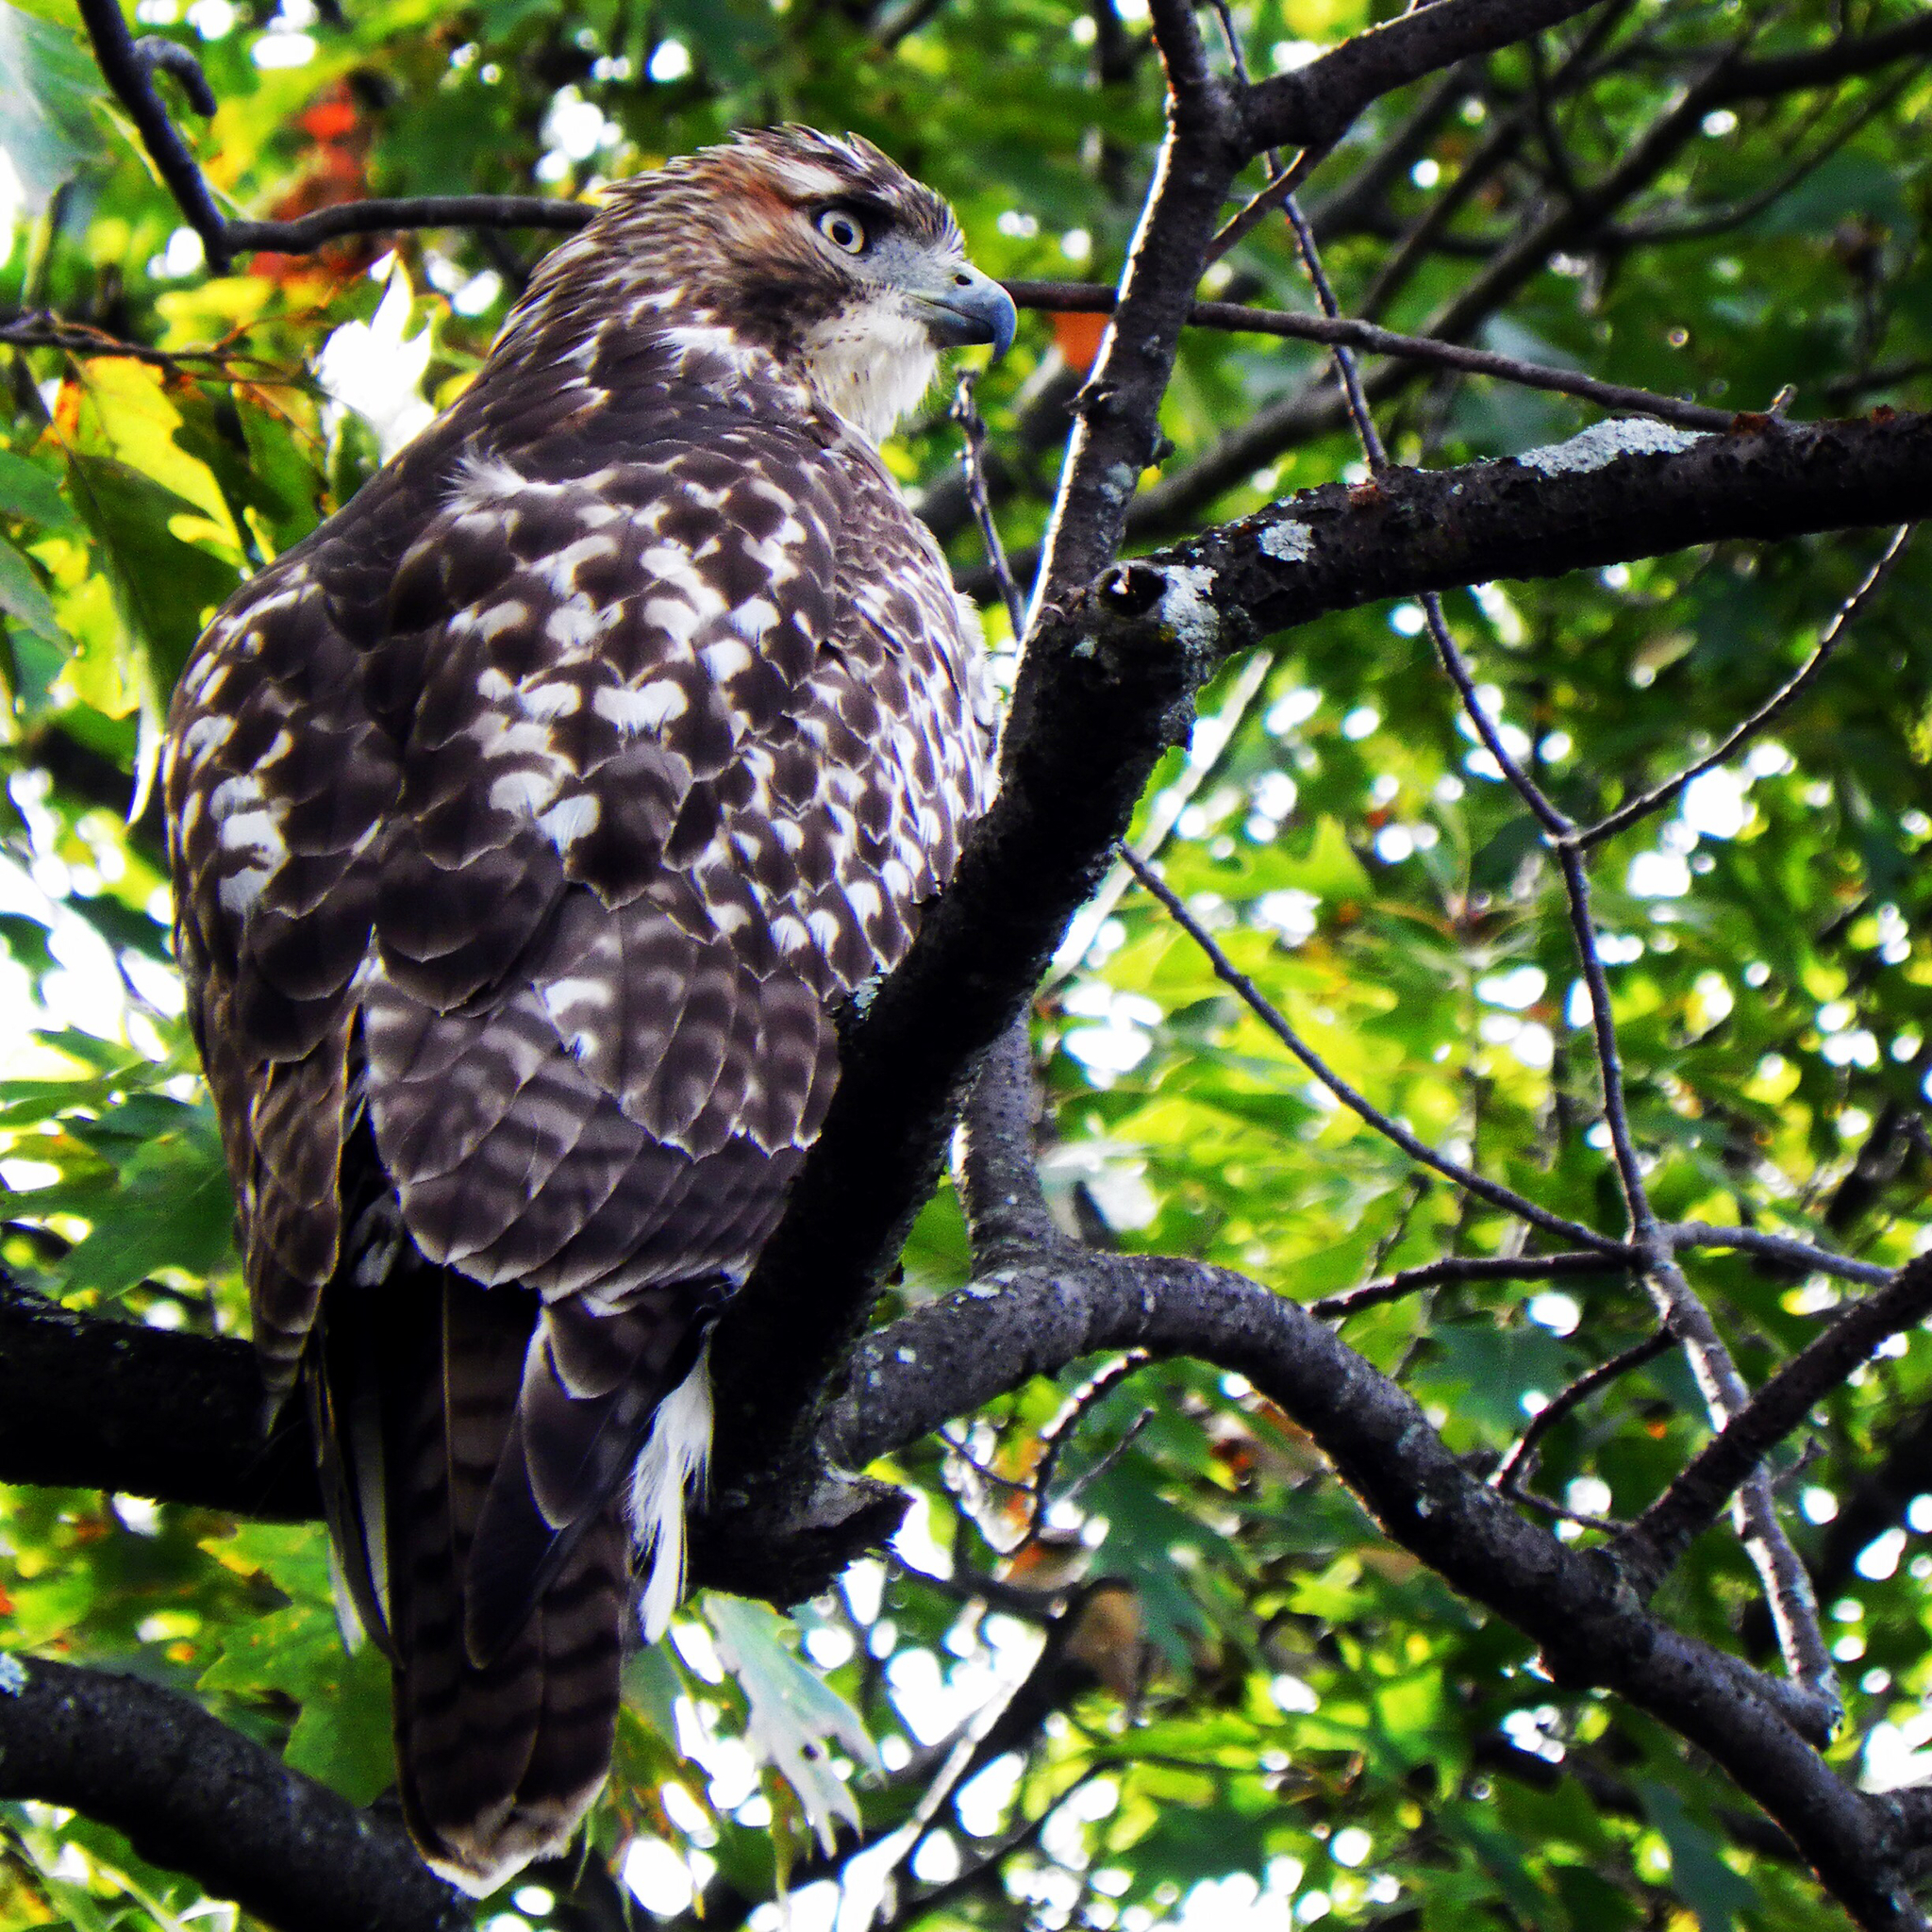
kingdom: Animalia
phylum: Chordata
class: Aves
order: Accipitriformes
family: Accipitridae
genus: Buteo
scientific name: Buteo jamaicensis
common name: Red-tailed hawk
